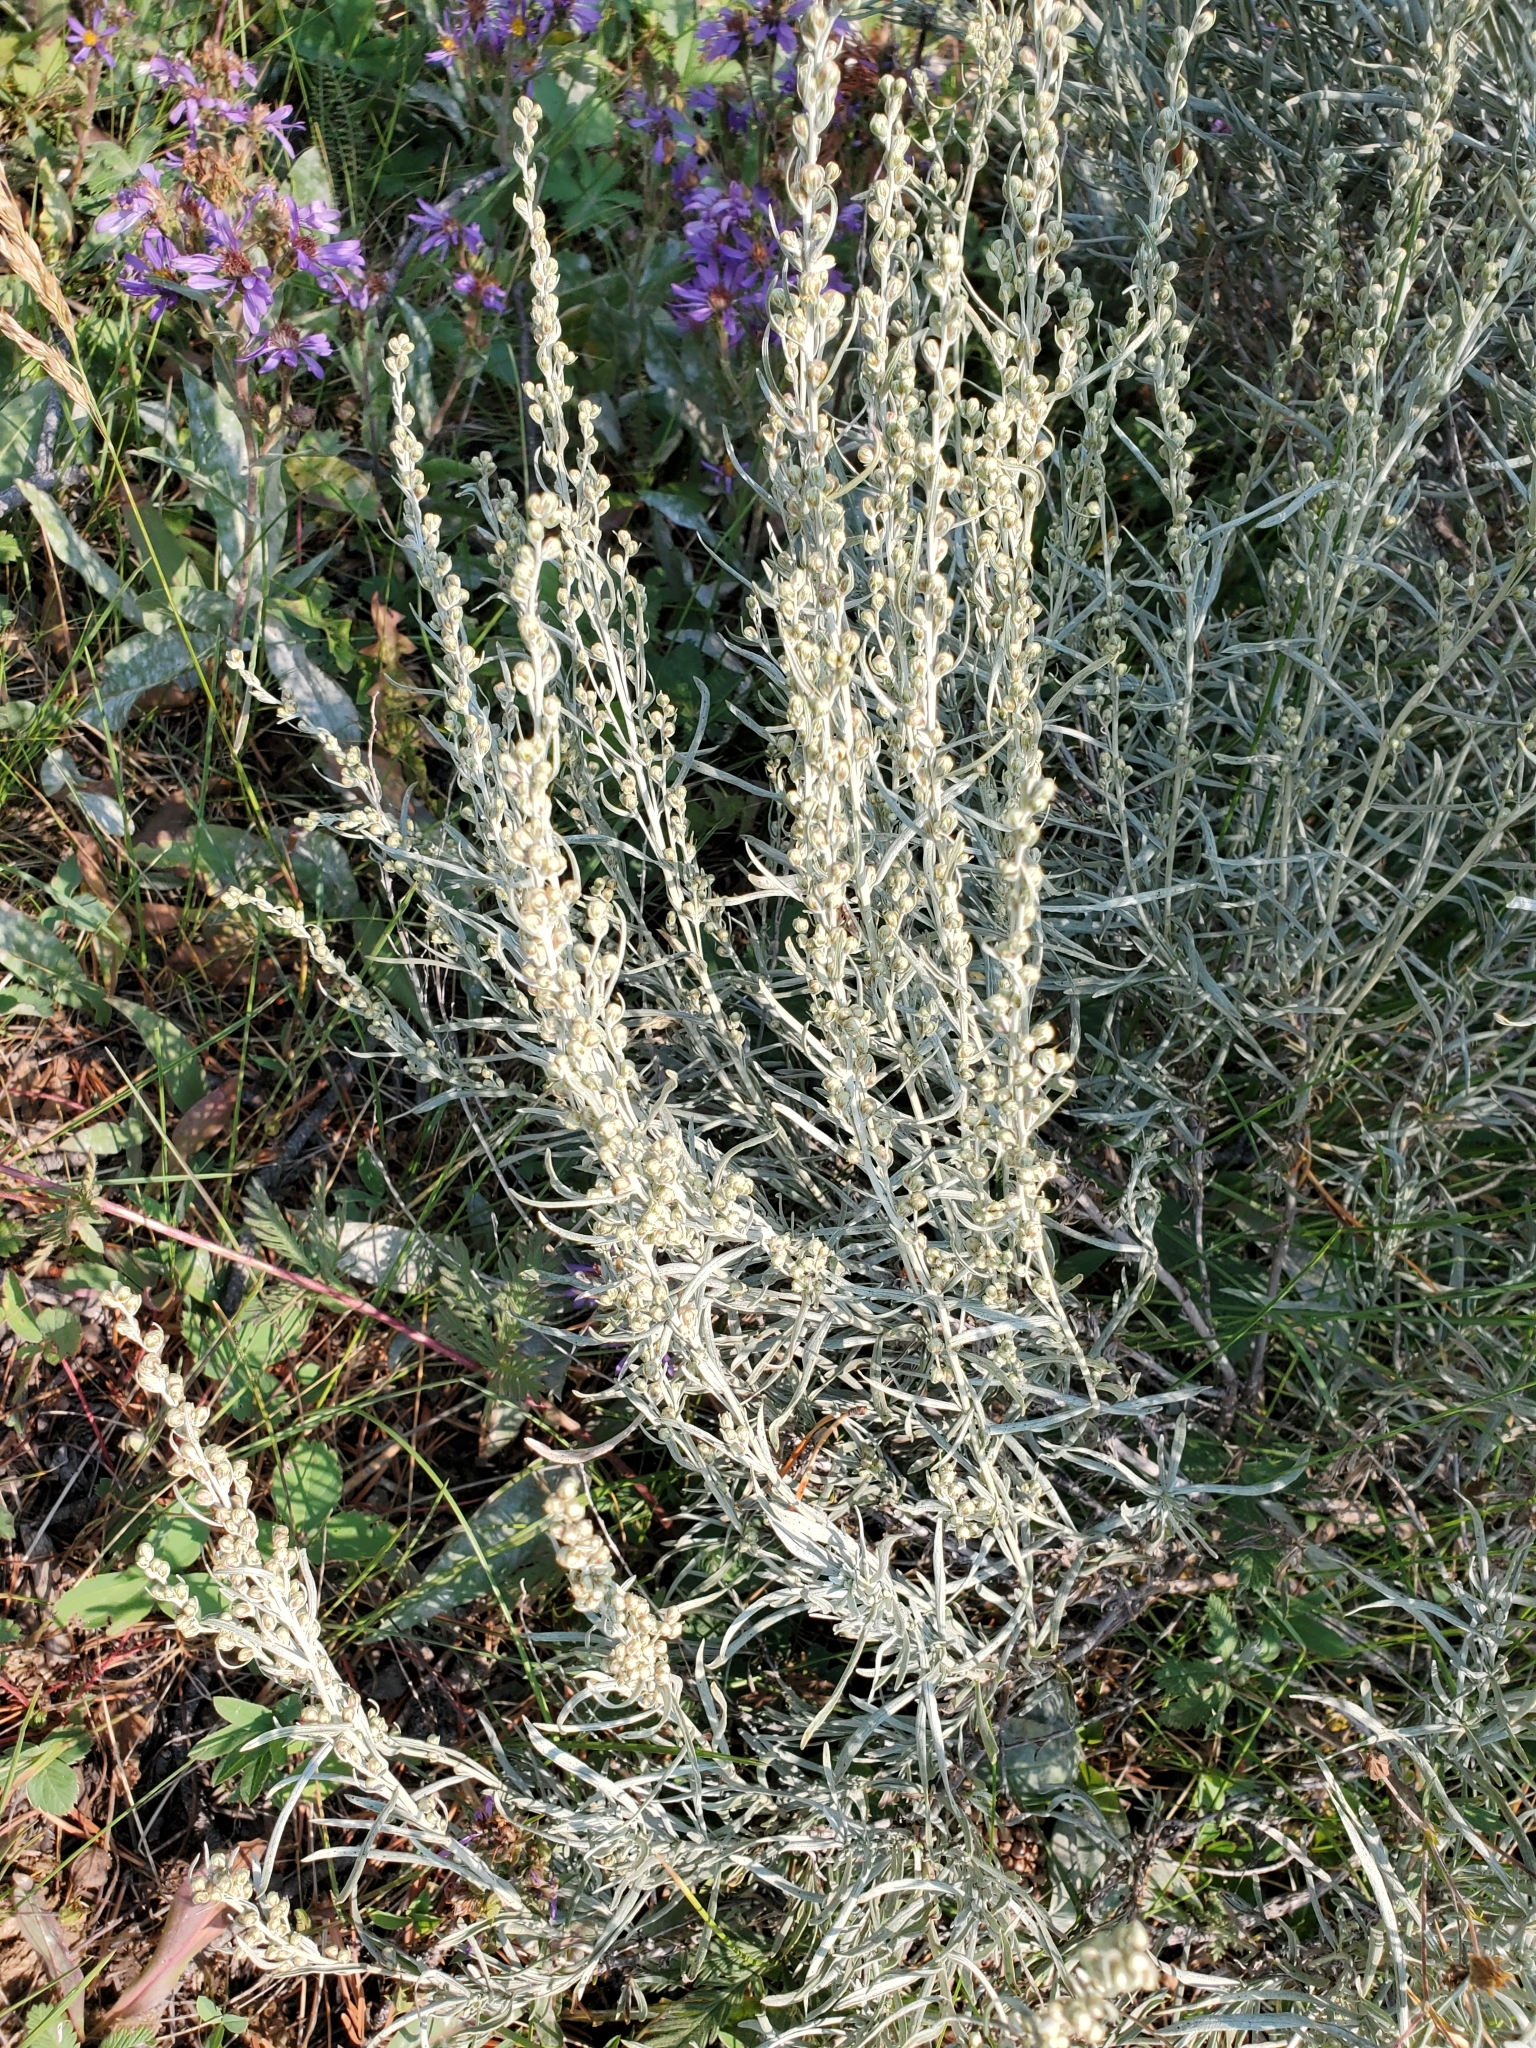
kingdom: Plantae
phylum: Tracheophyta
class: Magnoliopsida
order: Asterales
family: Asteraceae
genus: Artemisia
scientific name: Artemisia cana
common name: Silver sagebrush
